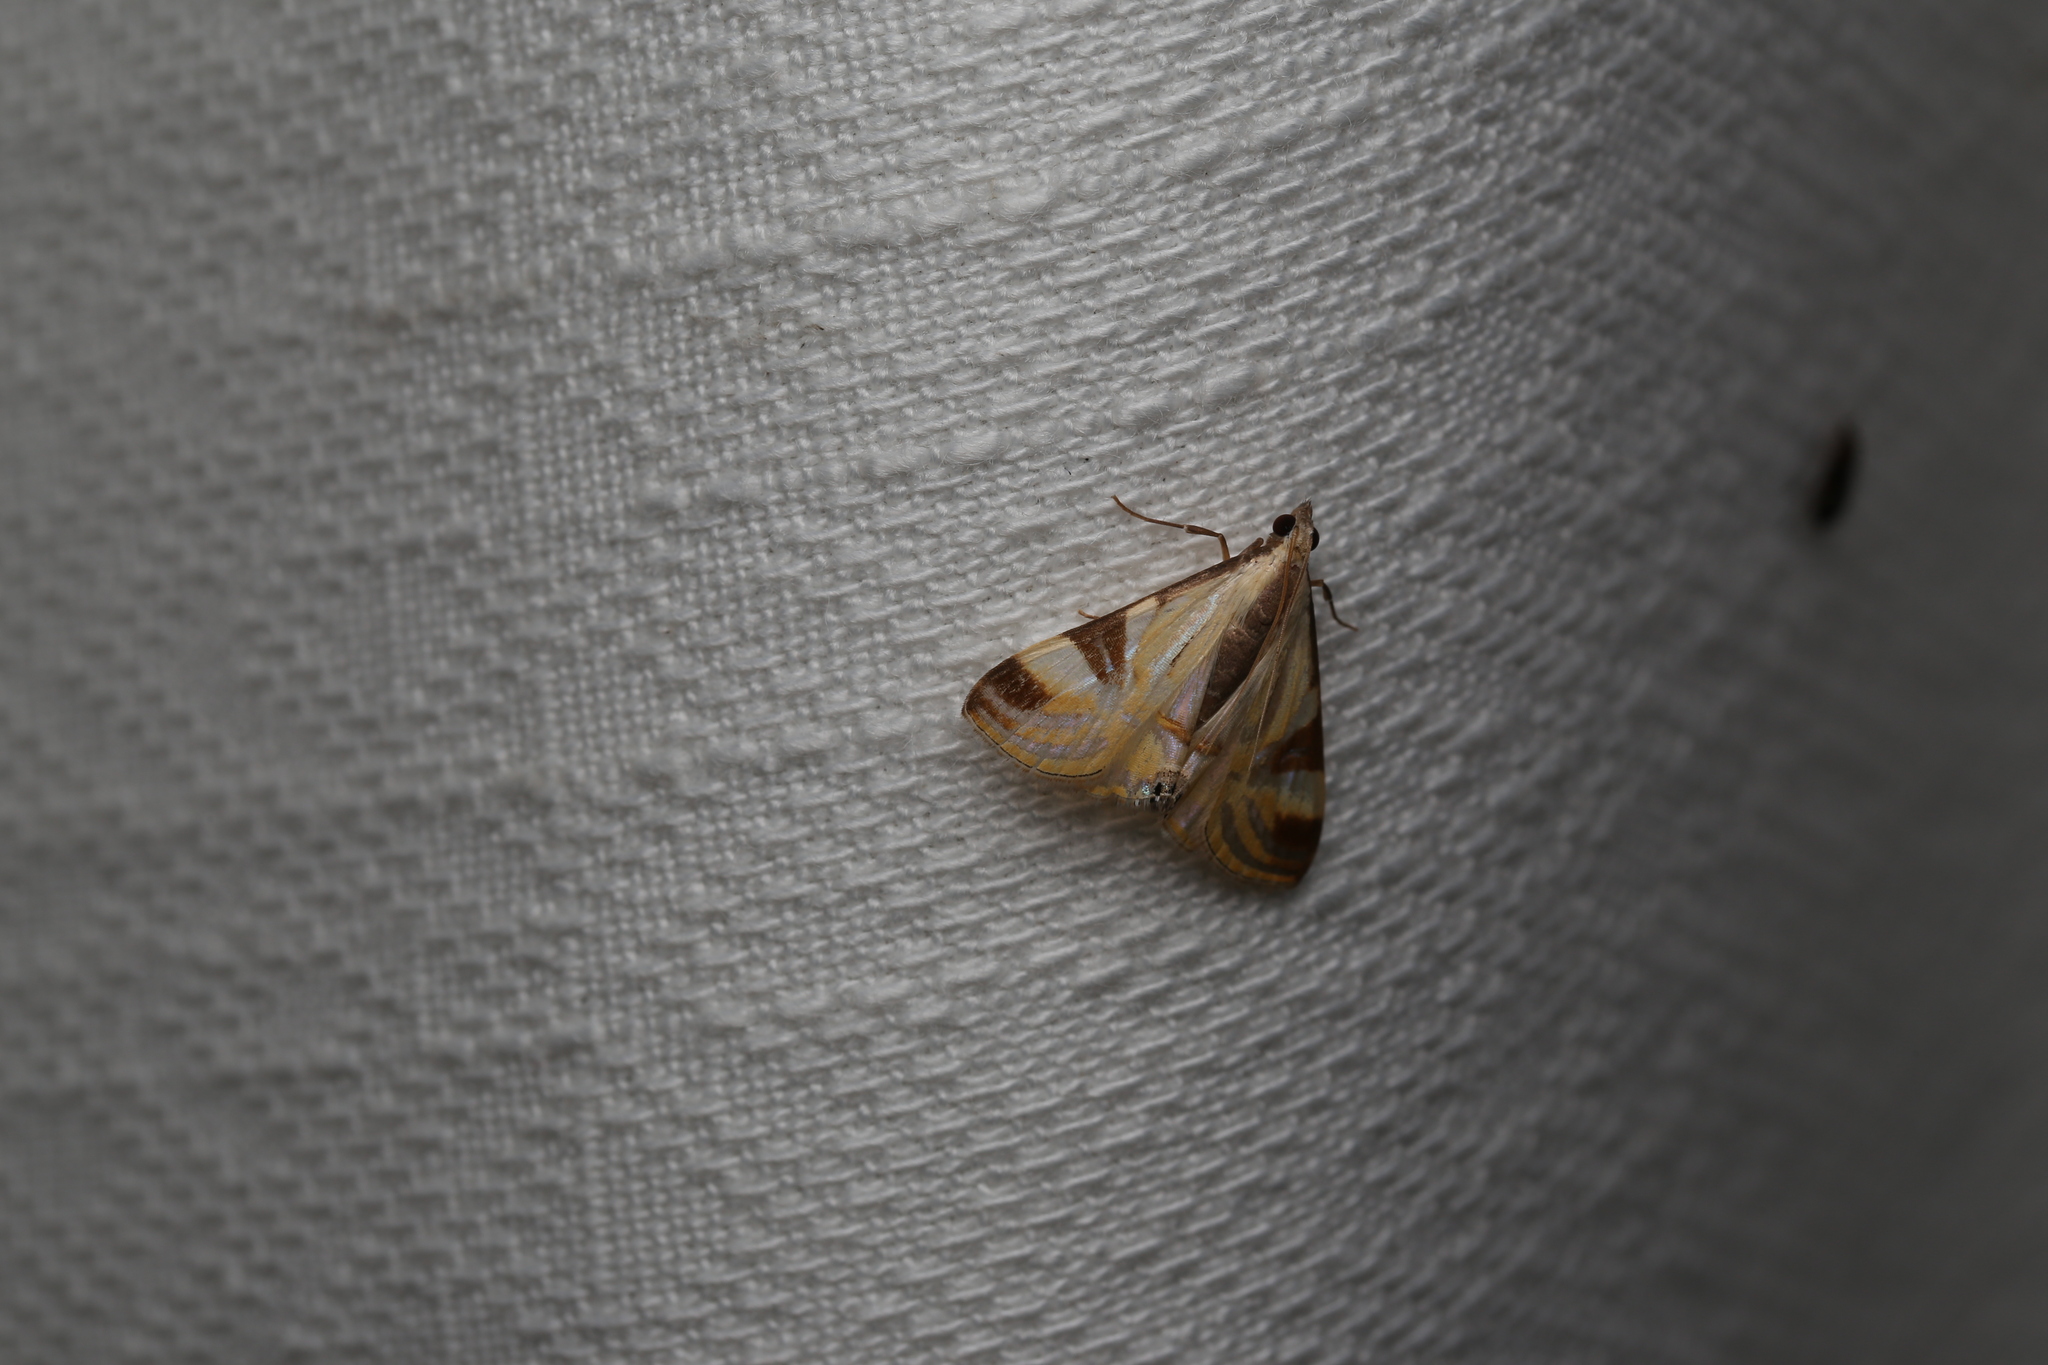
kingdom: Animalia
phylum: Arthropoda
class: Insecta
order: Lepidoptera
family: Crambidae
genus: Talanga
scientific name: Talanga tolumnialis
